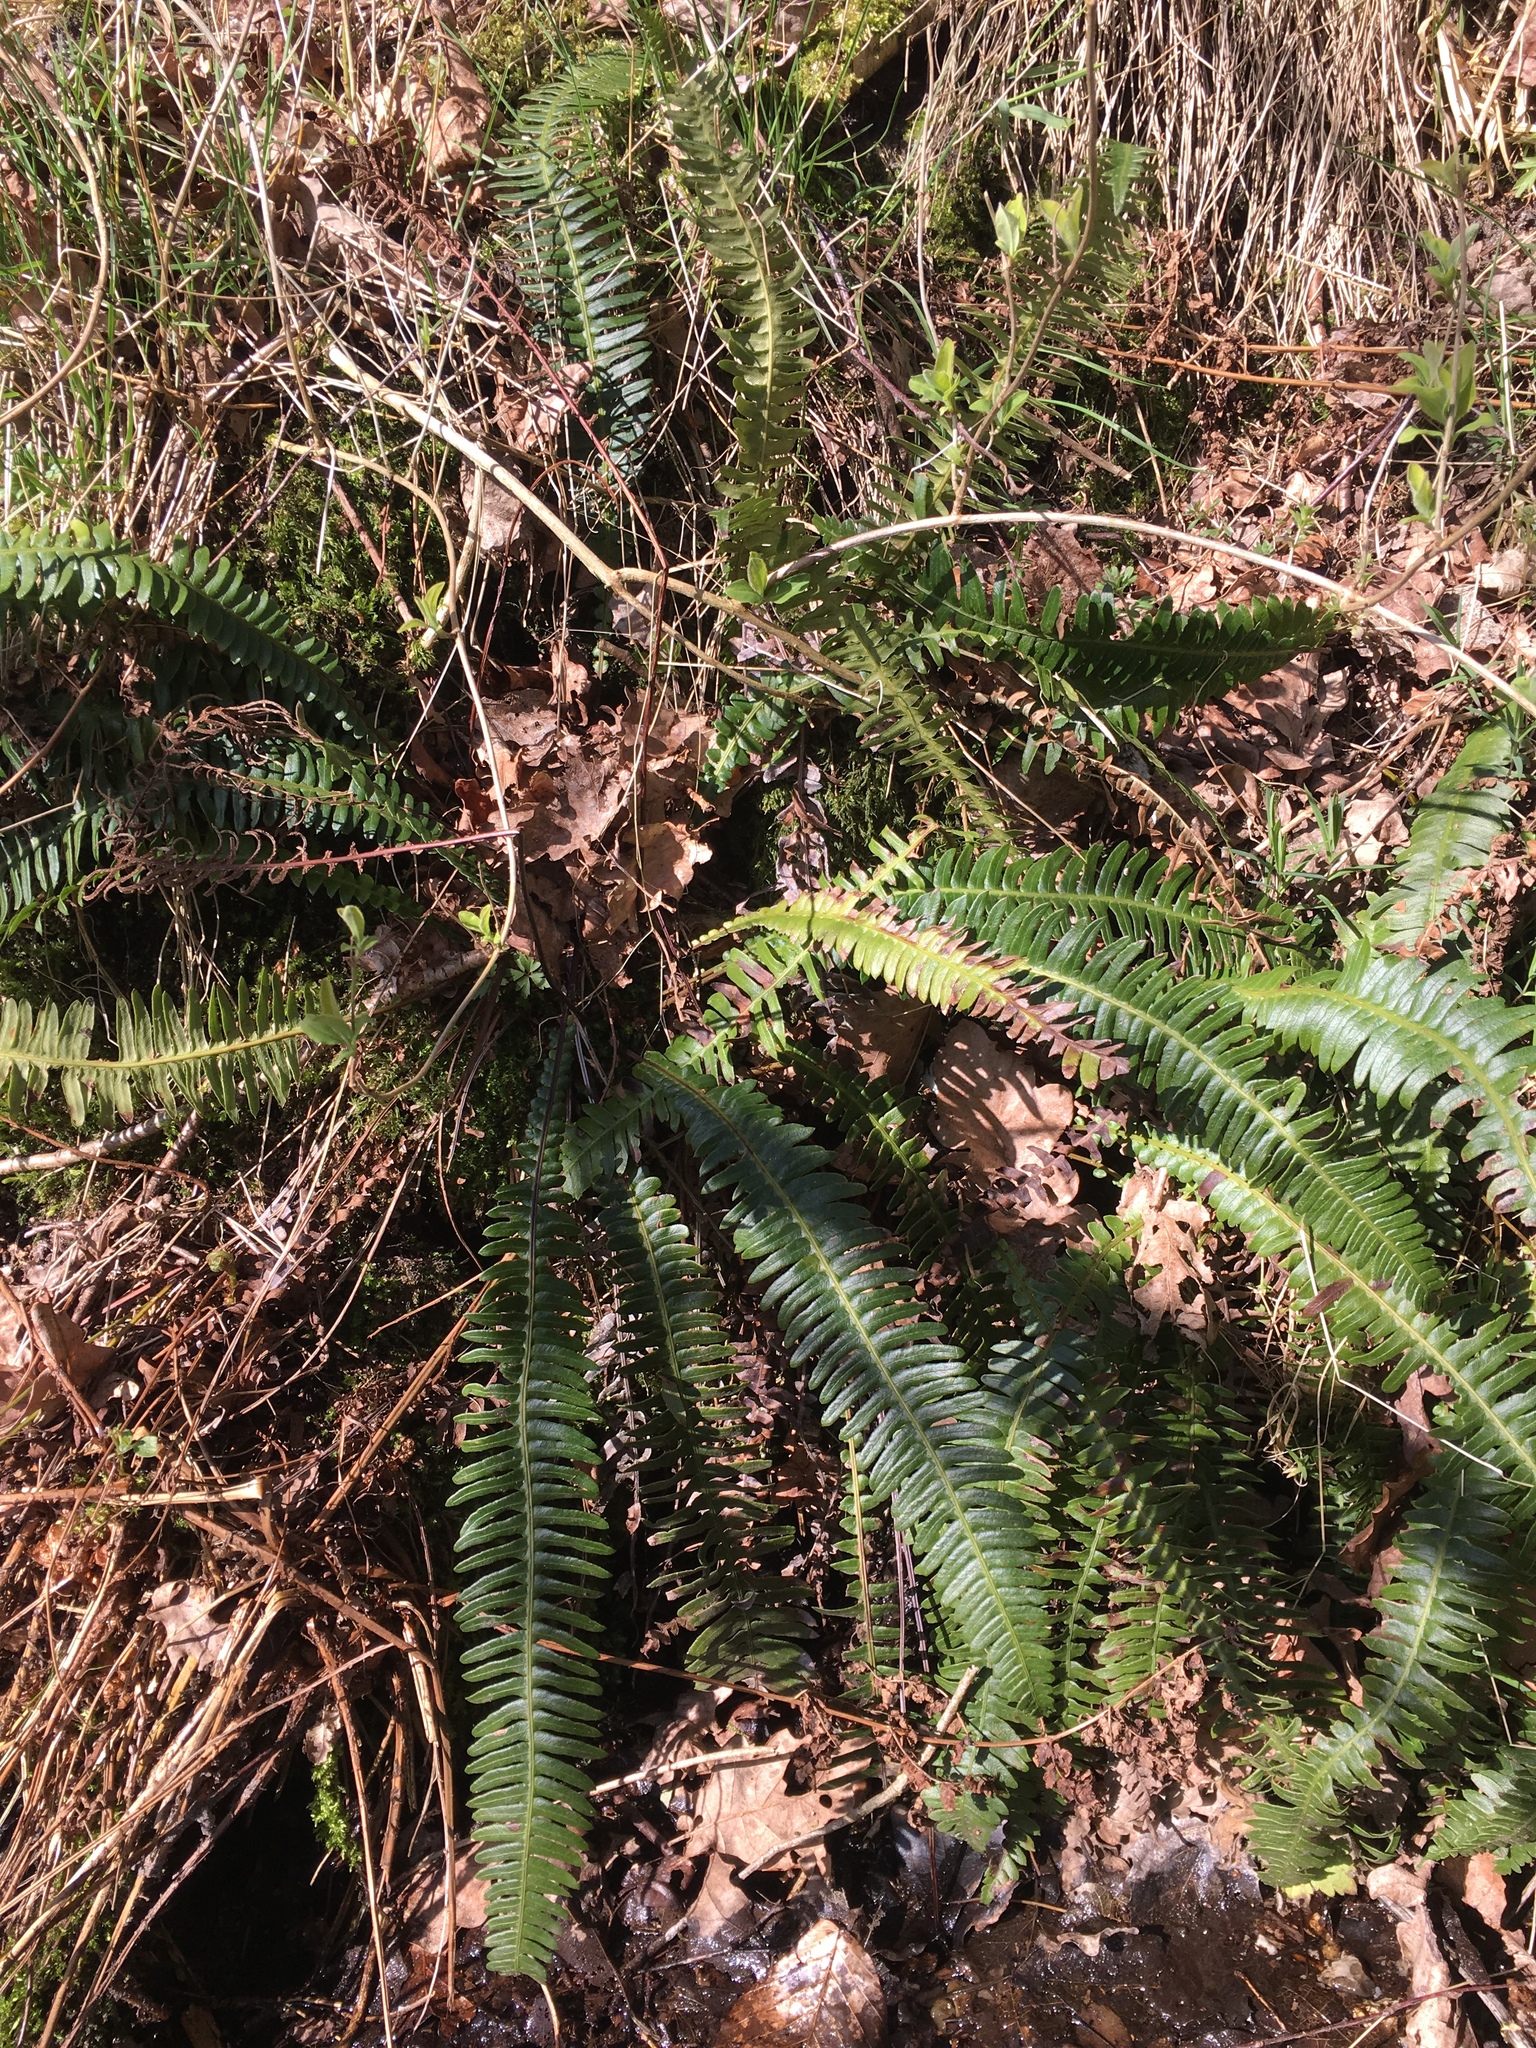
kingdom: Plantae
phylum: Tracheophyta
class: Polypodiopsida
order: Polypodiales
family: Blechnaceae
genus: Struthiopteris
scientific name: Struthiopteris spicant
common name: Deer fern
